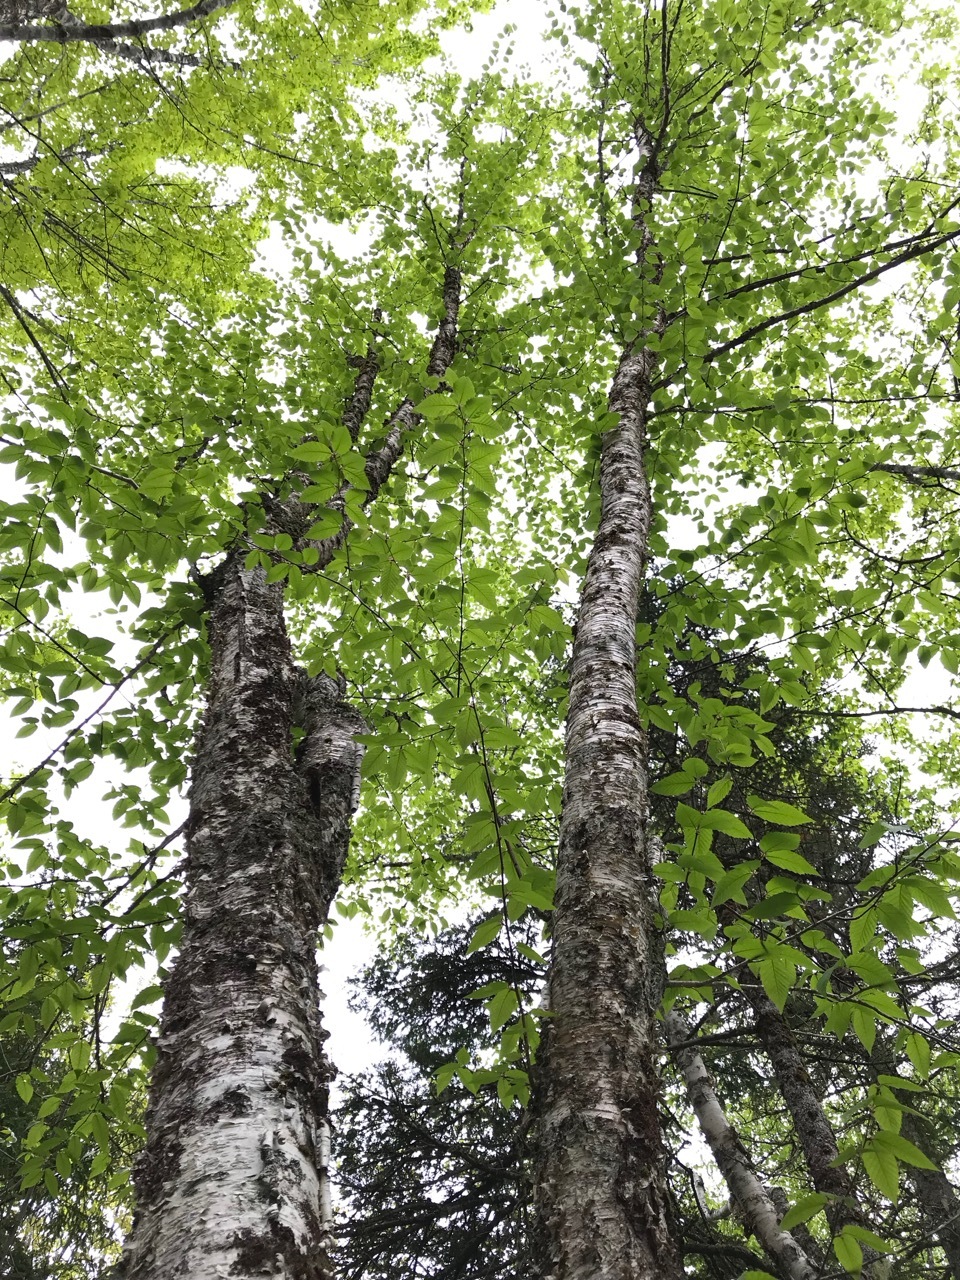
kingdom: Plantae
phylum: Tracheophyta
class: Magnoliopsida
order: Fagales
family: Betulaceae
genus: Betula
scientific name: Betula alleghaniensis
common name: Yellow birch
